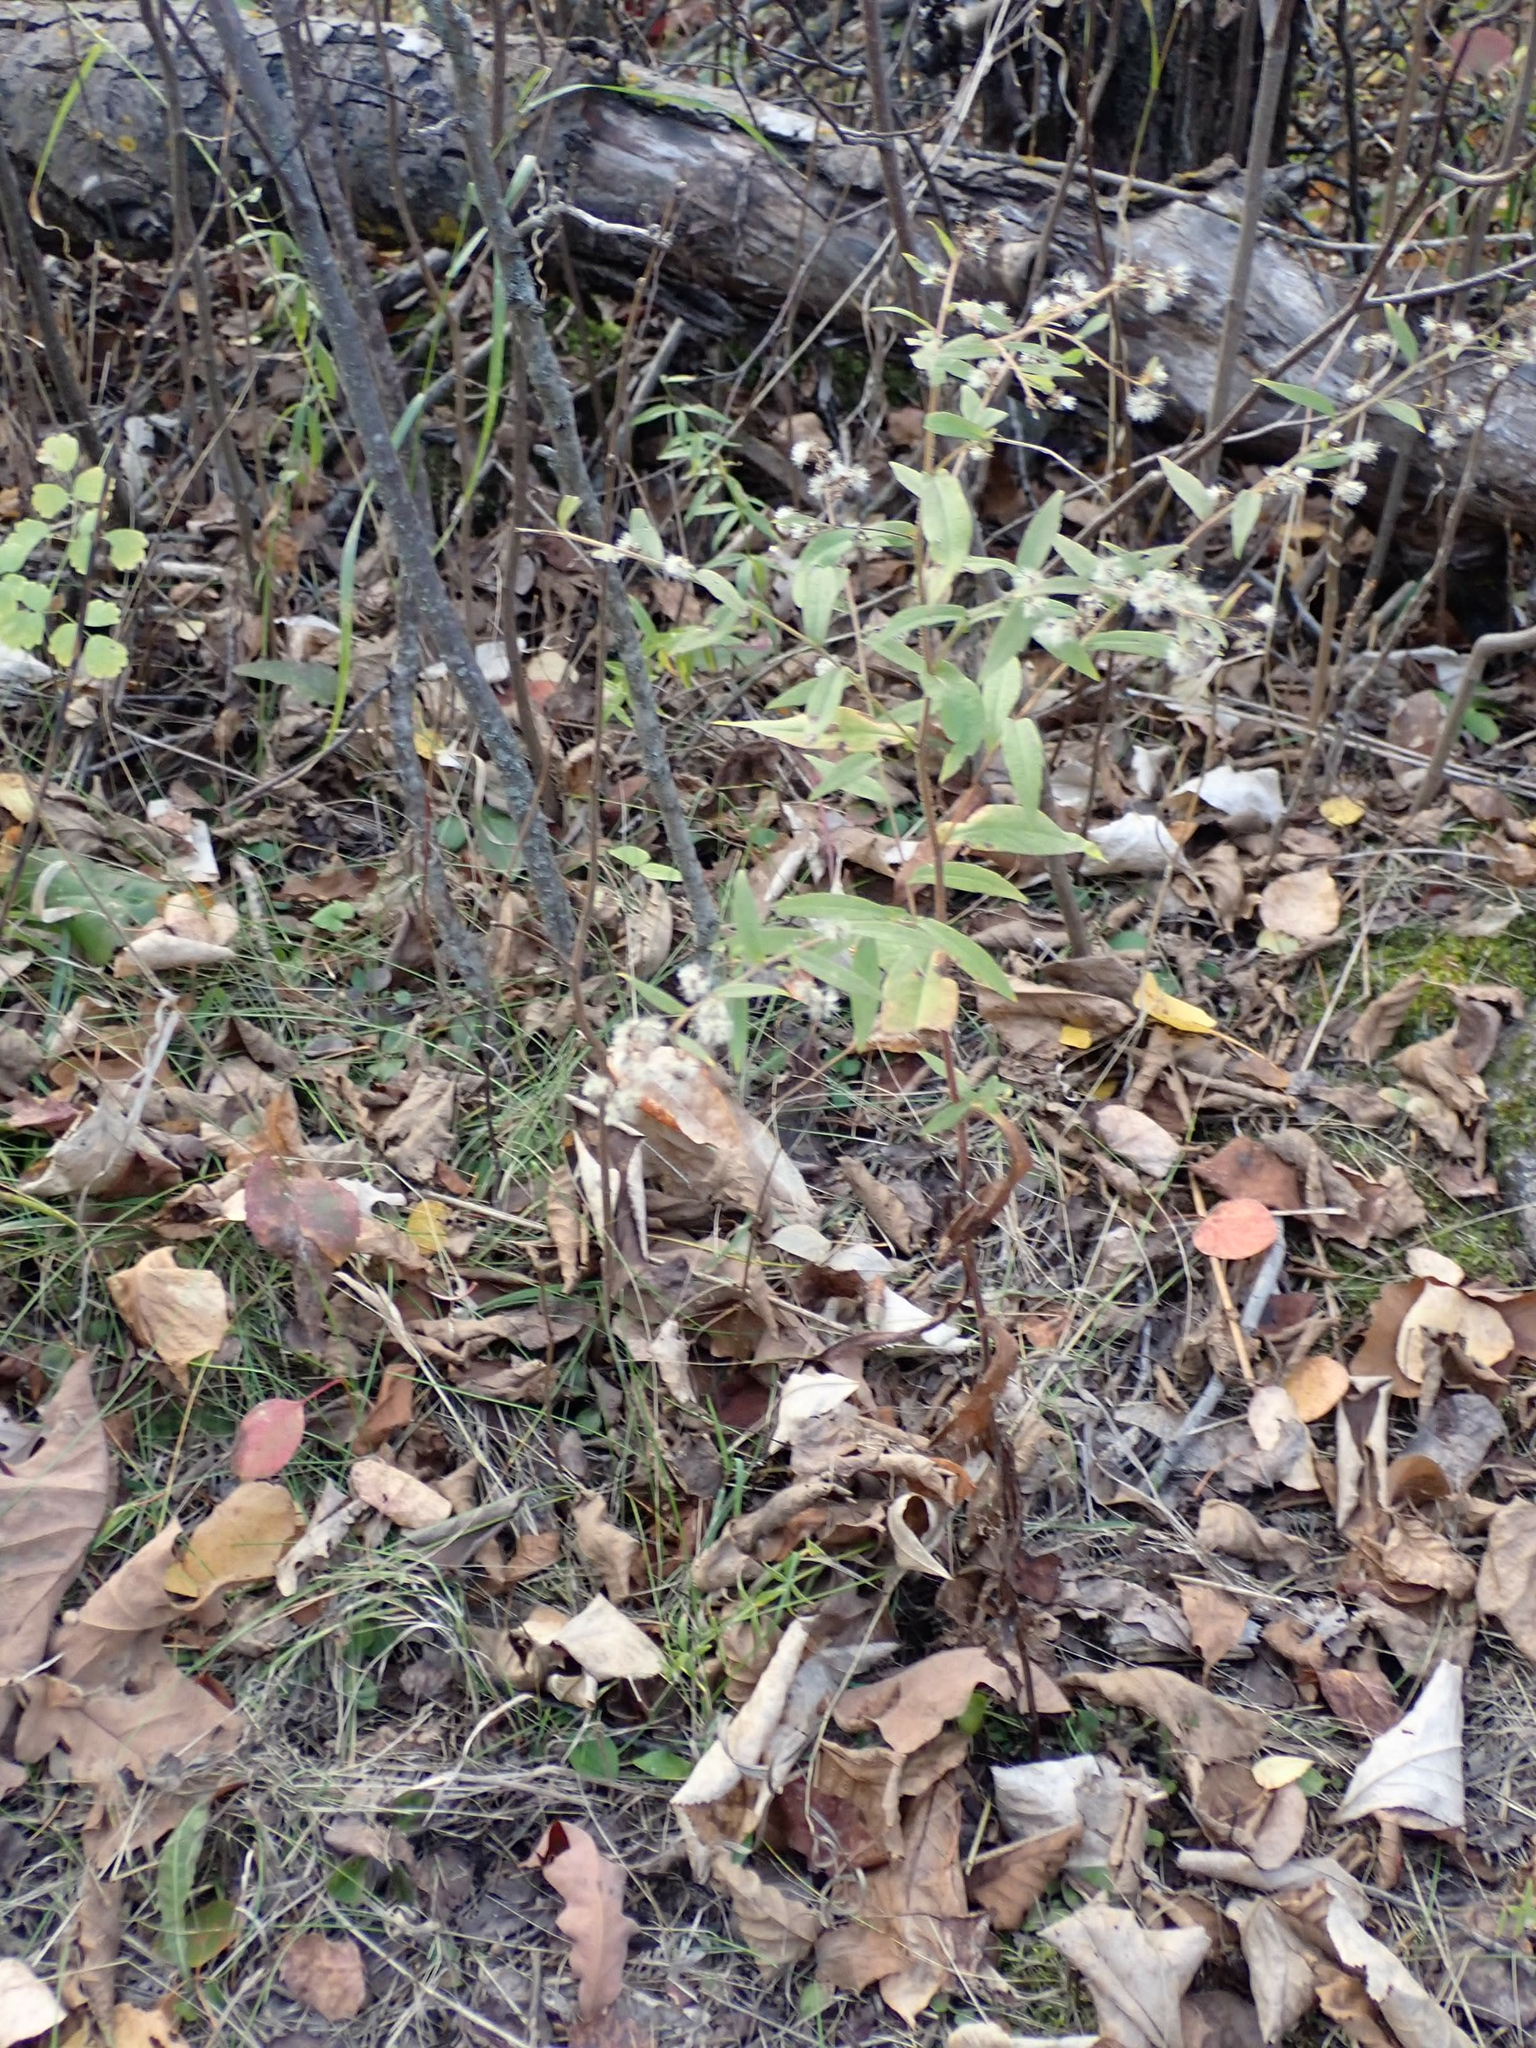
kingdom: Plantae
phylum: Tracheophyta
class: Magnoliopsida
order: Asterales
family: Asteraceae
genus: Symphyotrichum
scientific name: Symphyotrichum lateriflorum
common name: Calico aster
